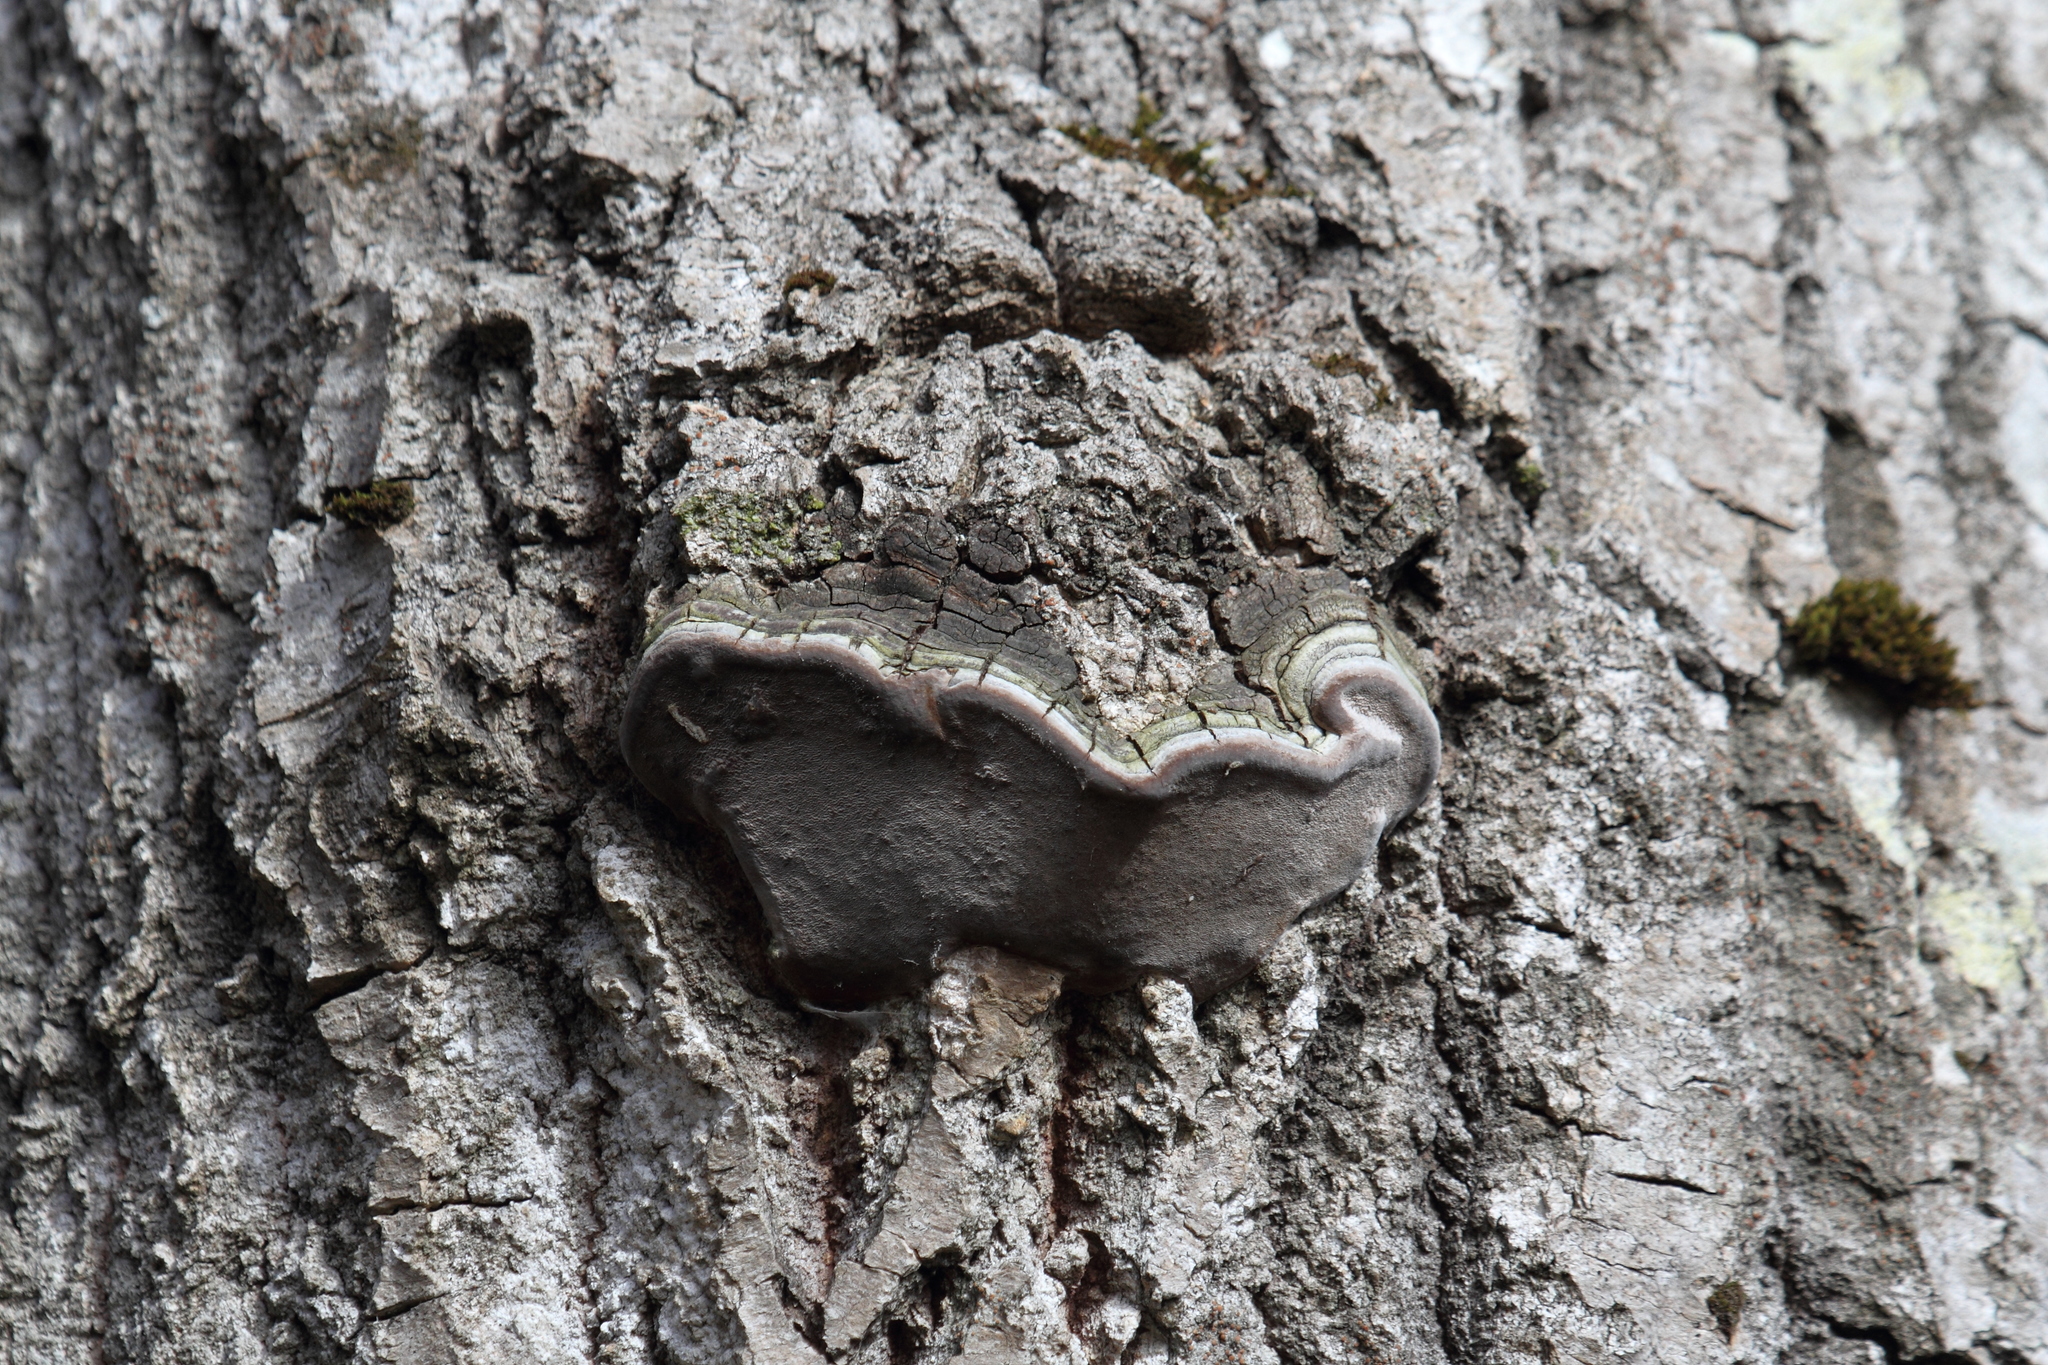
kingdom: Fungi
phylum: Basidiomycota
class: Agaricomycetes
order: Hymenochaetales
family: Hymenochaetaceae
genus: Phellinus
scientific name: Phellinus tremulae
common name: Aspen bracket
